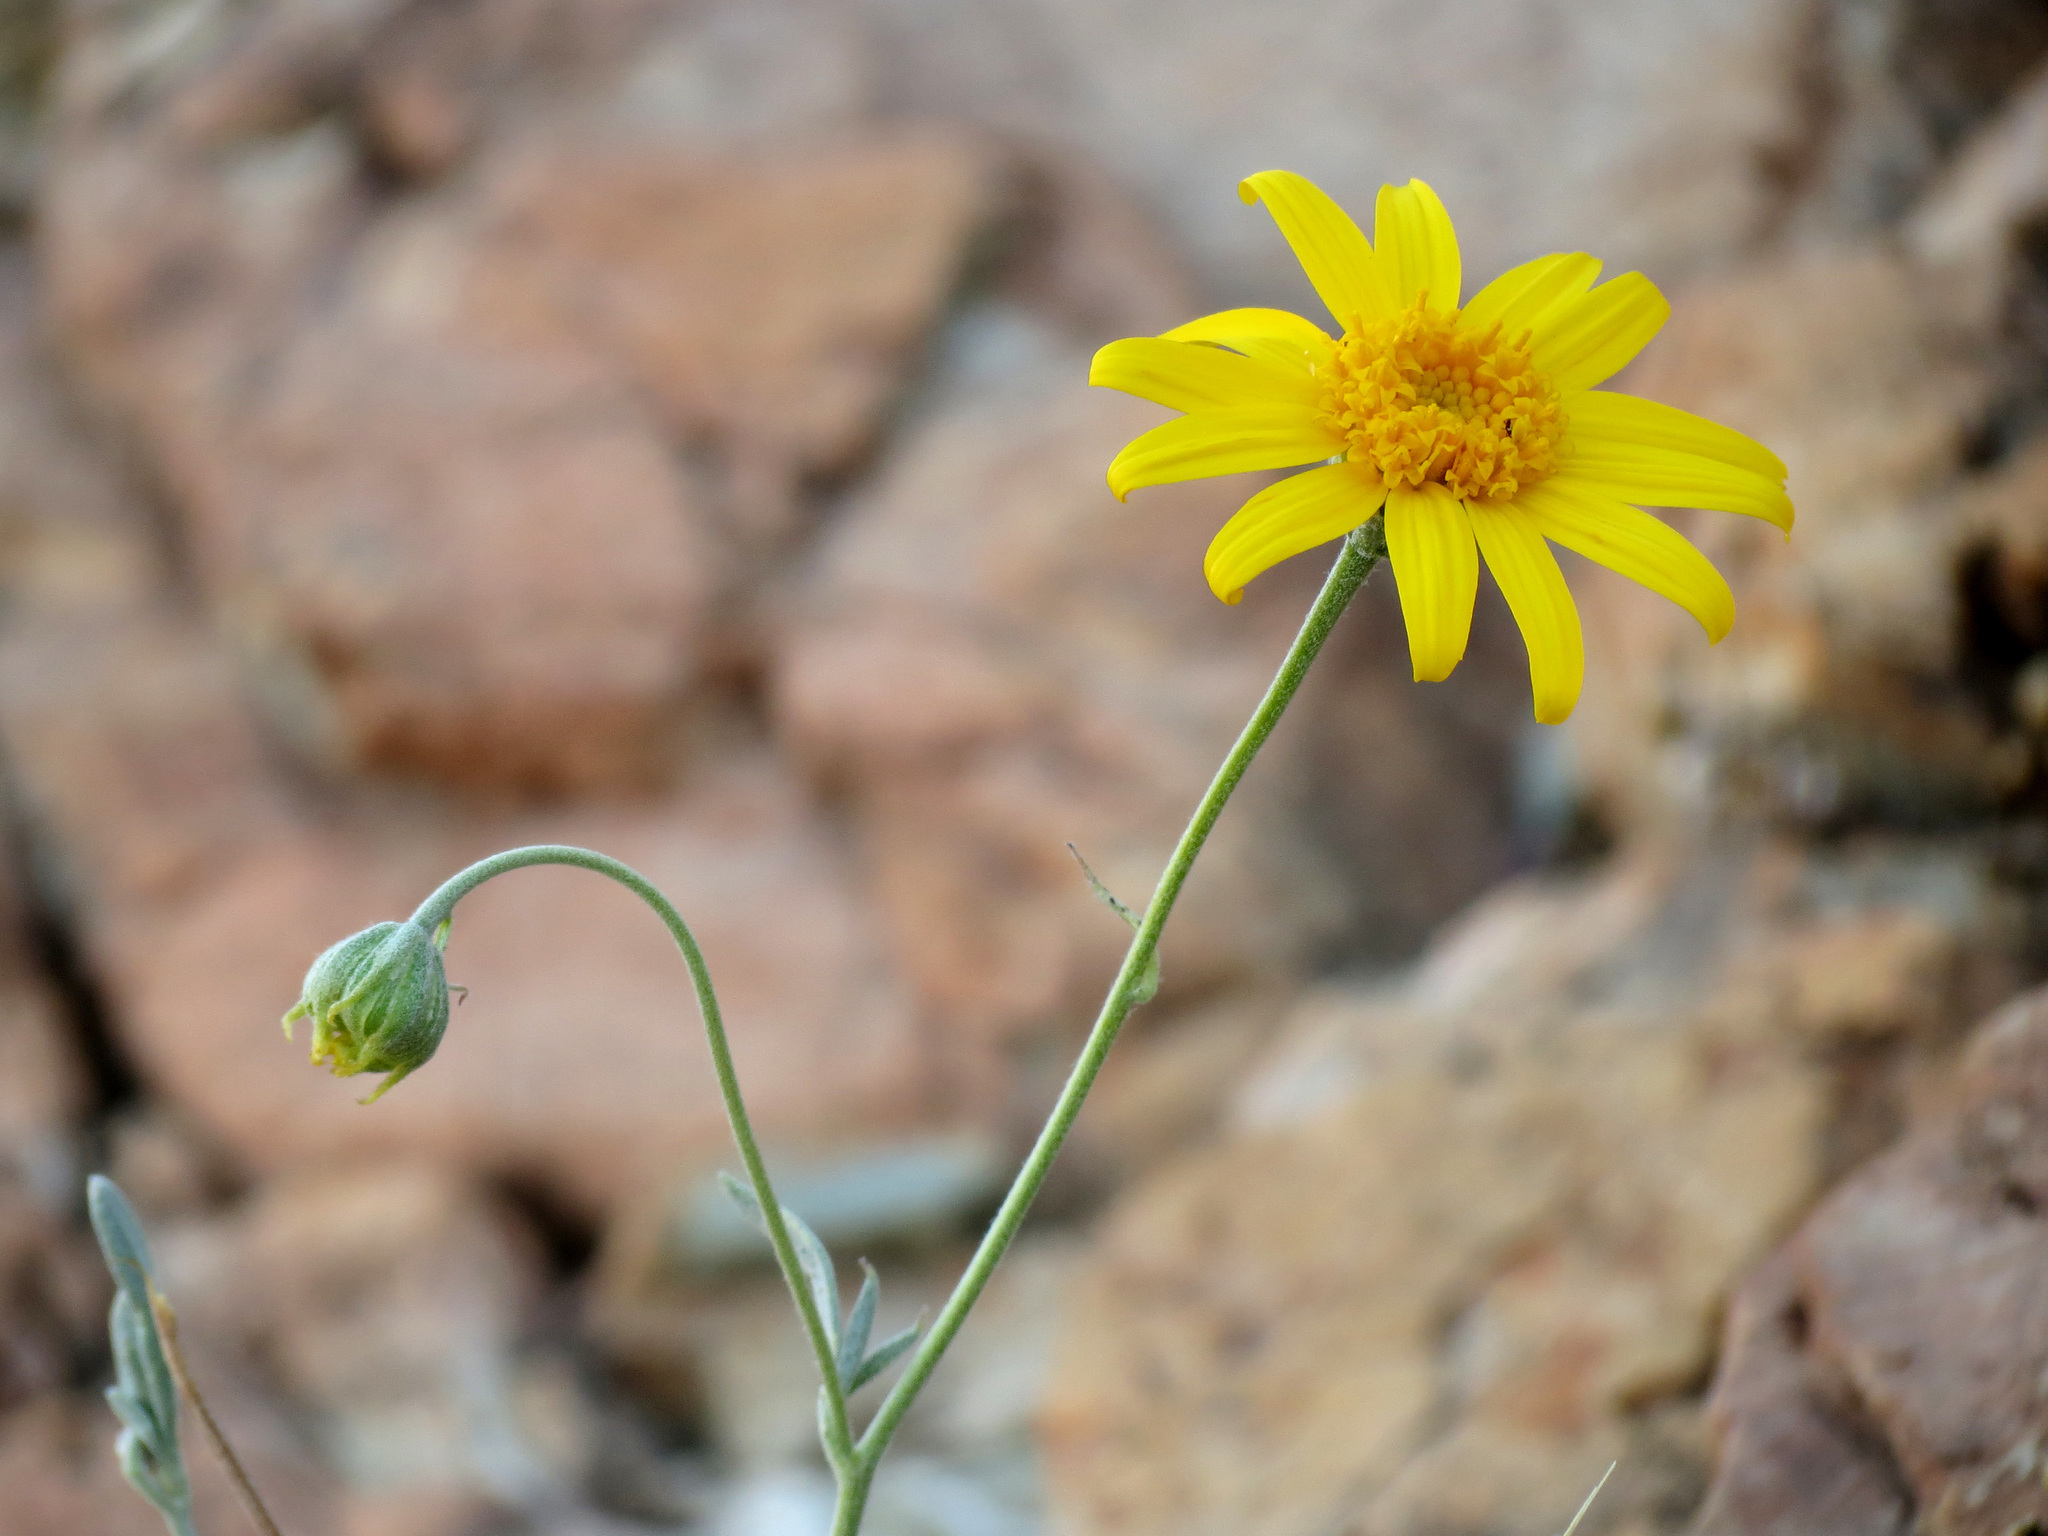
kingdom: Plantae
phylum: Tracheophyta
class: Magnoliopsida
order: Asterales
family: Asteraceae
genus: Picradeniopsis
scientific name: Picradeniopsis absinthifolia
